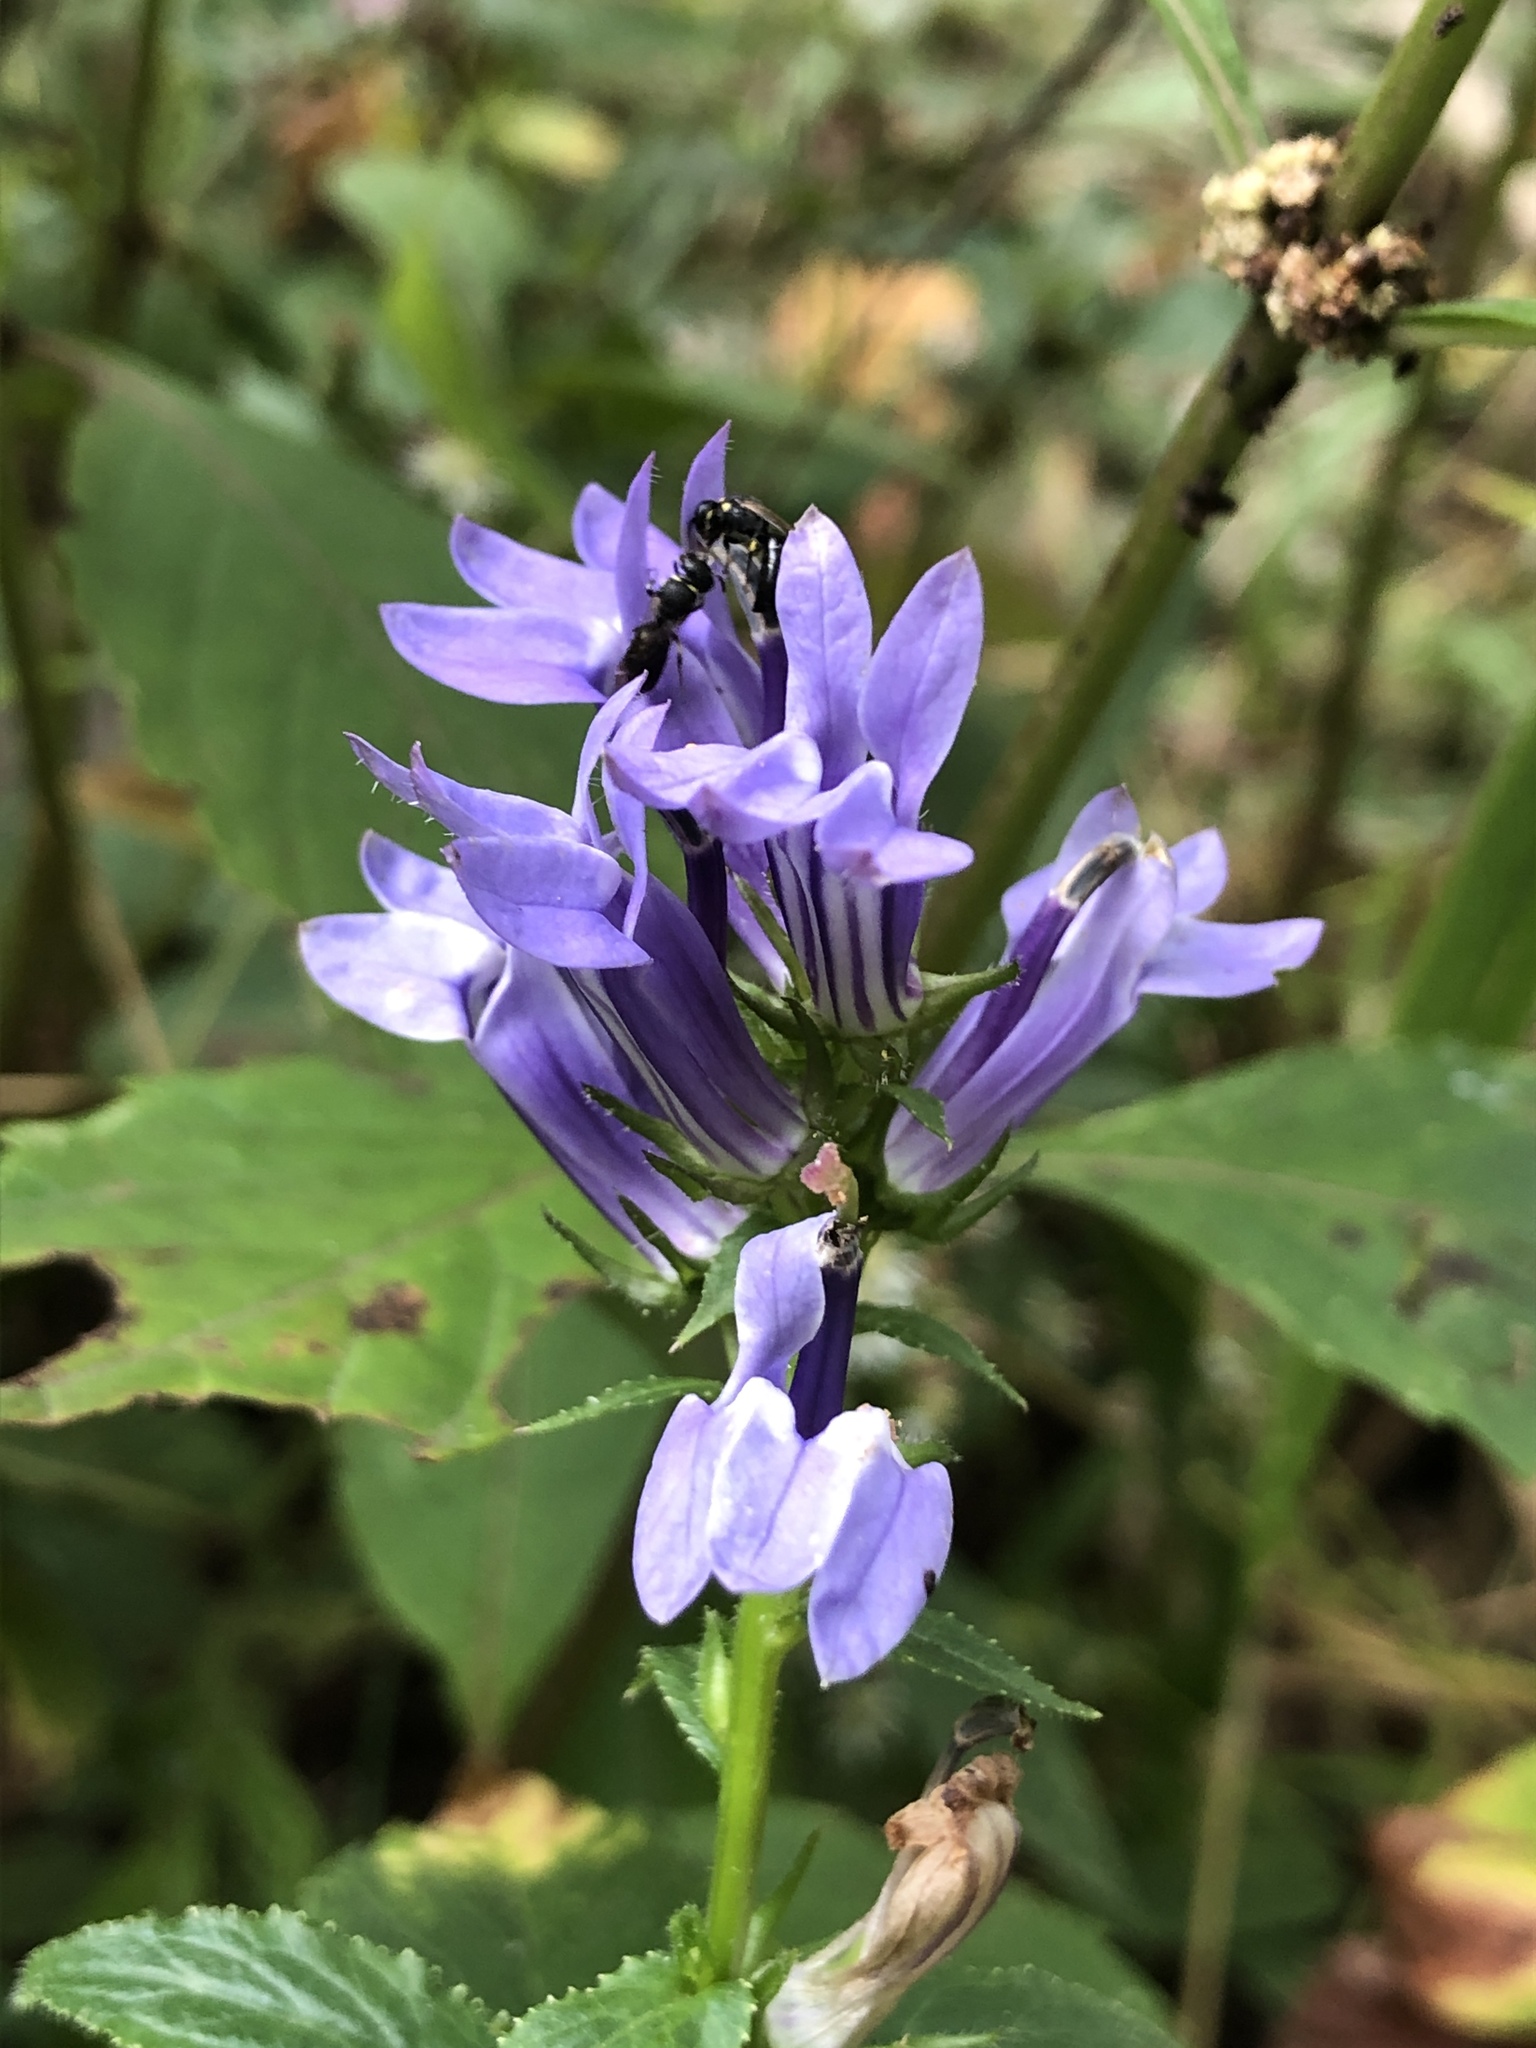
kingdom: Plantae
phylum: Tracheophyta
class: Magnoliopsida
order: Asterales
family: Campanulaceae
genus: Lobelia
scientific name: Lobelia siphilitica
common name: Great lobelia
